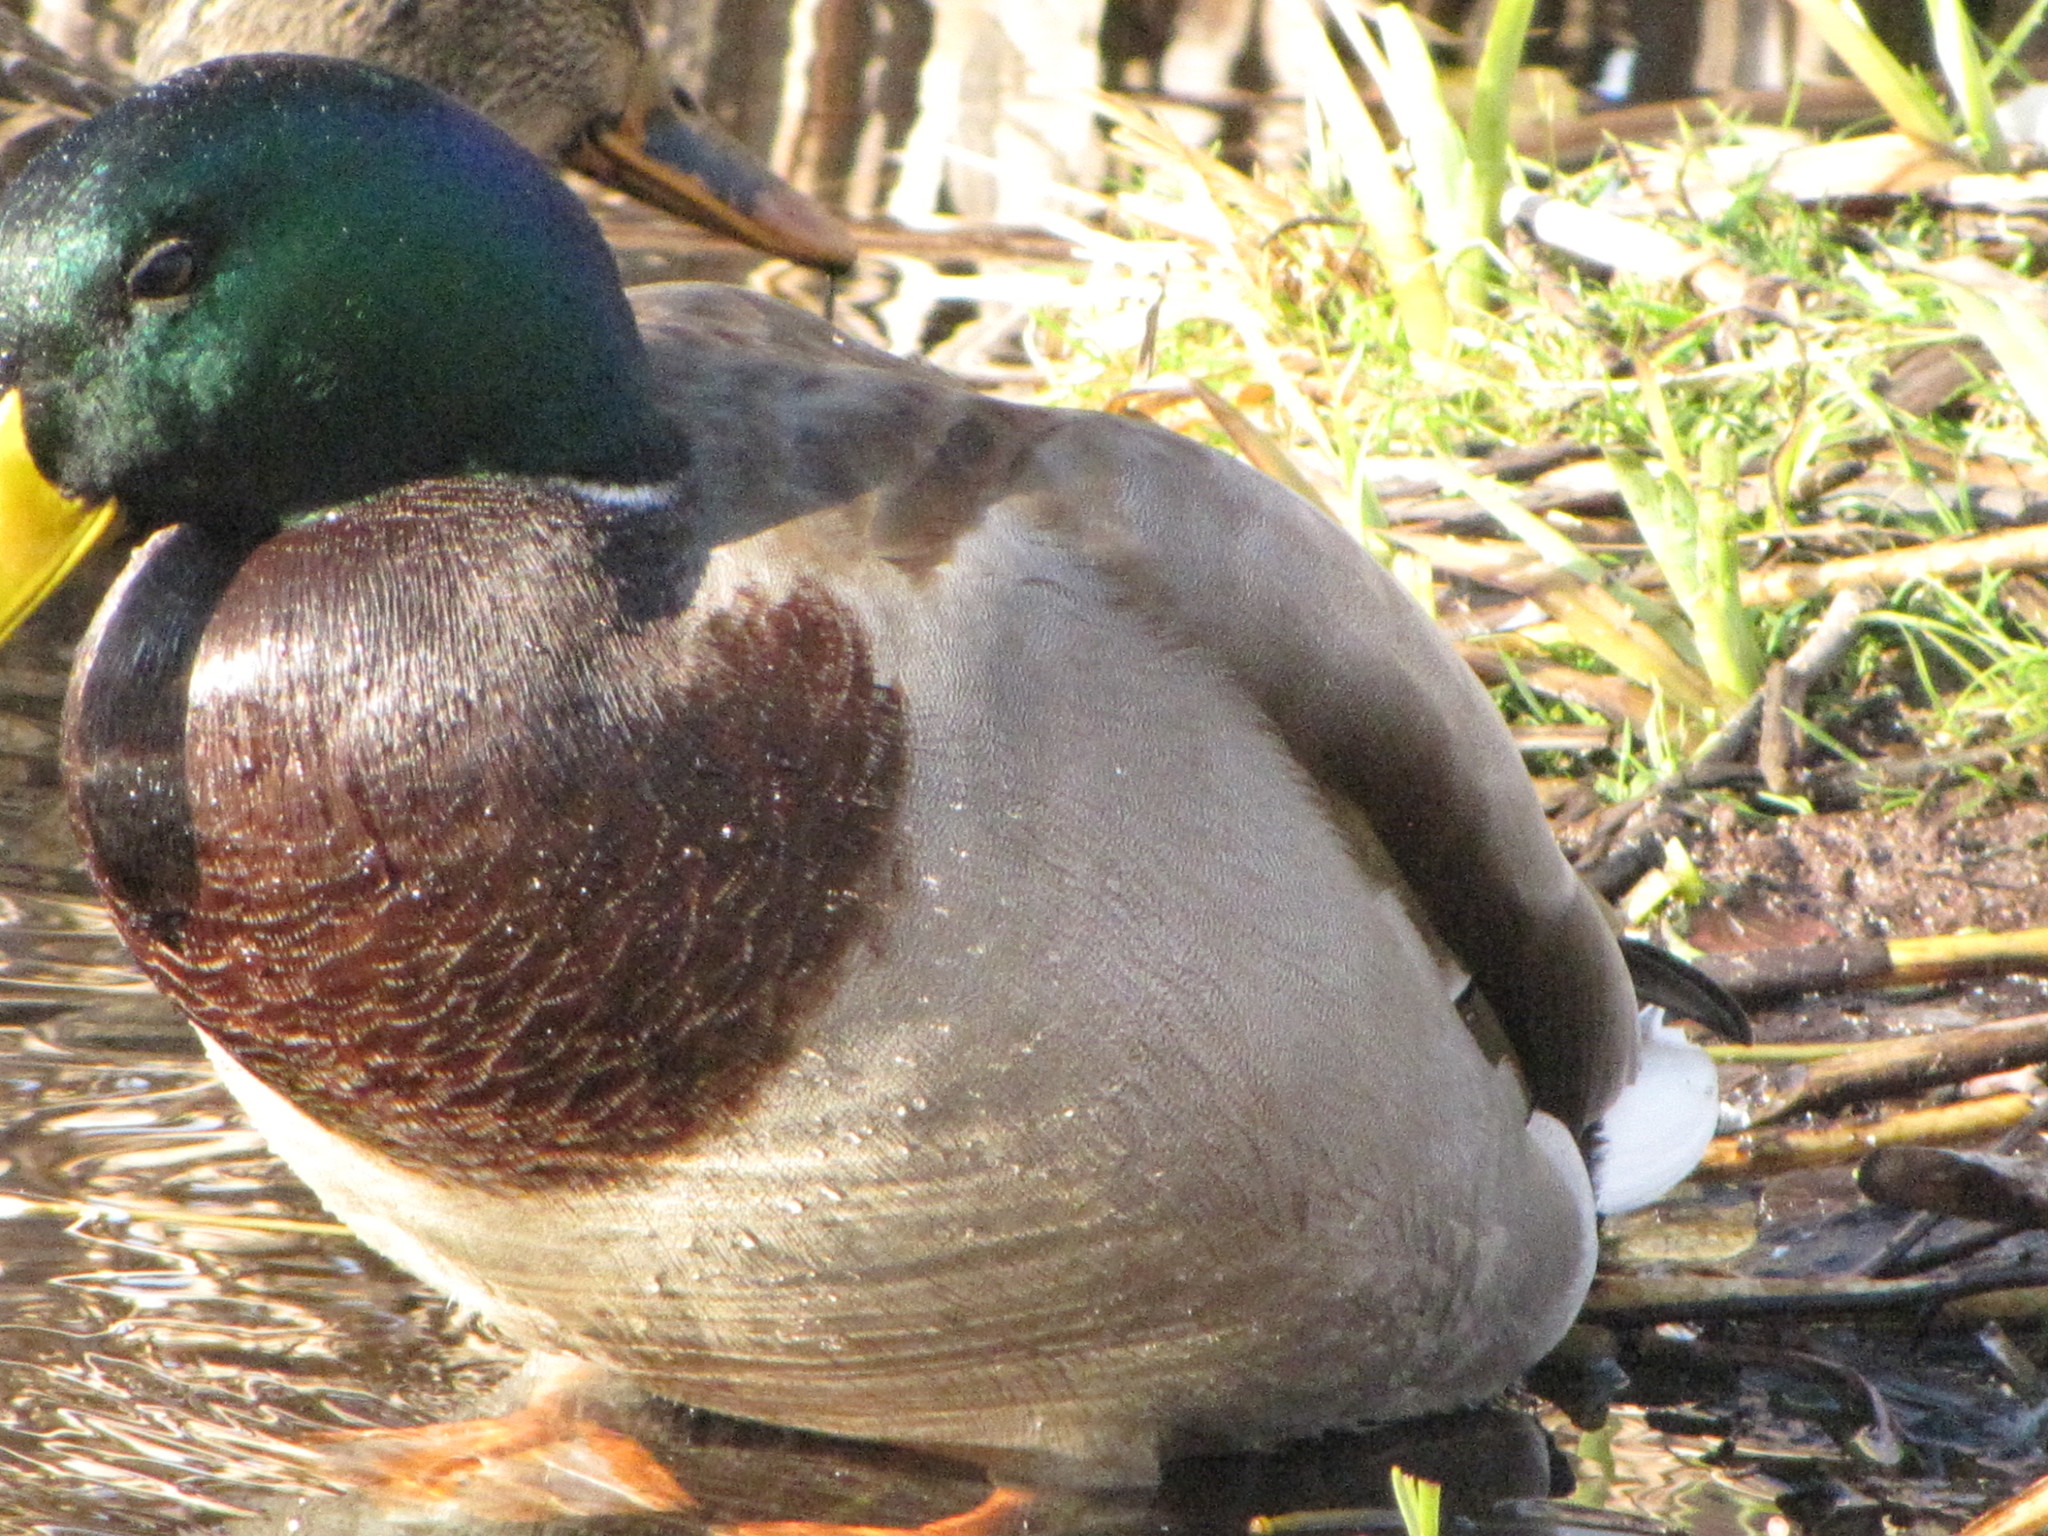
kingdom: Animalia
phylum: Chordata
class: Aves
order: Anseriformes
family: Anatidae
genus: Anas
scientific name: Anas platyrhynchos
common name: Mallard
